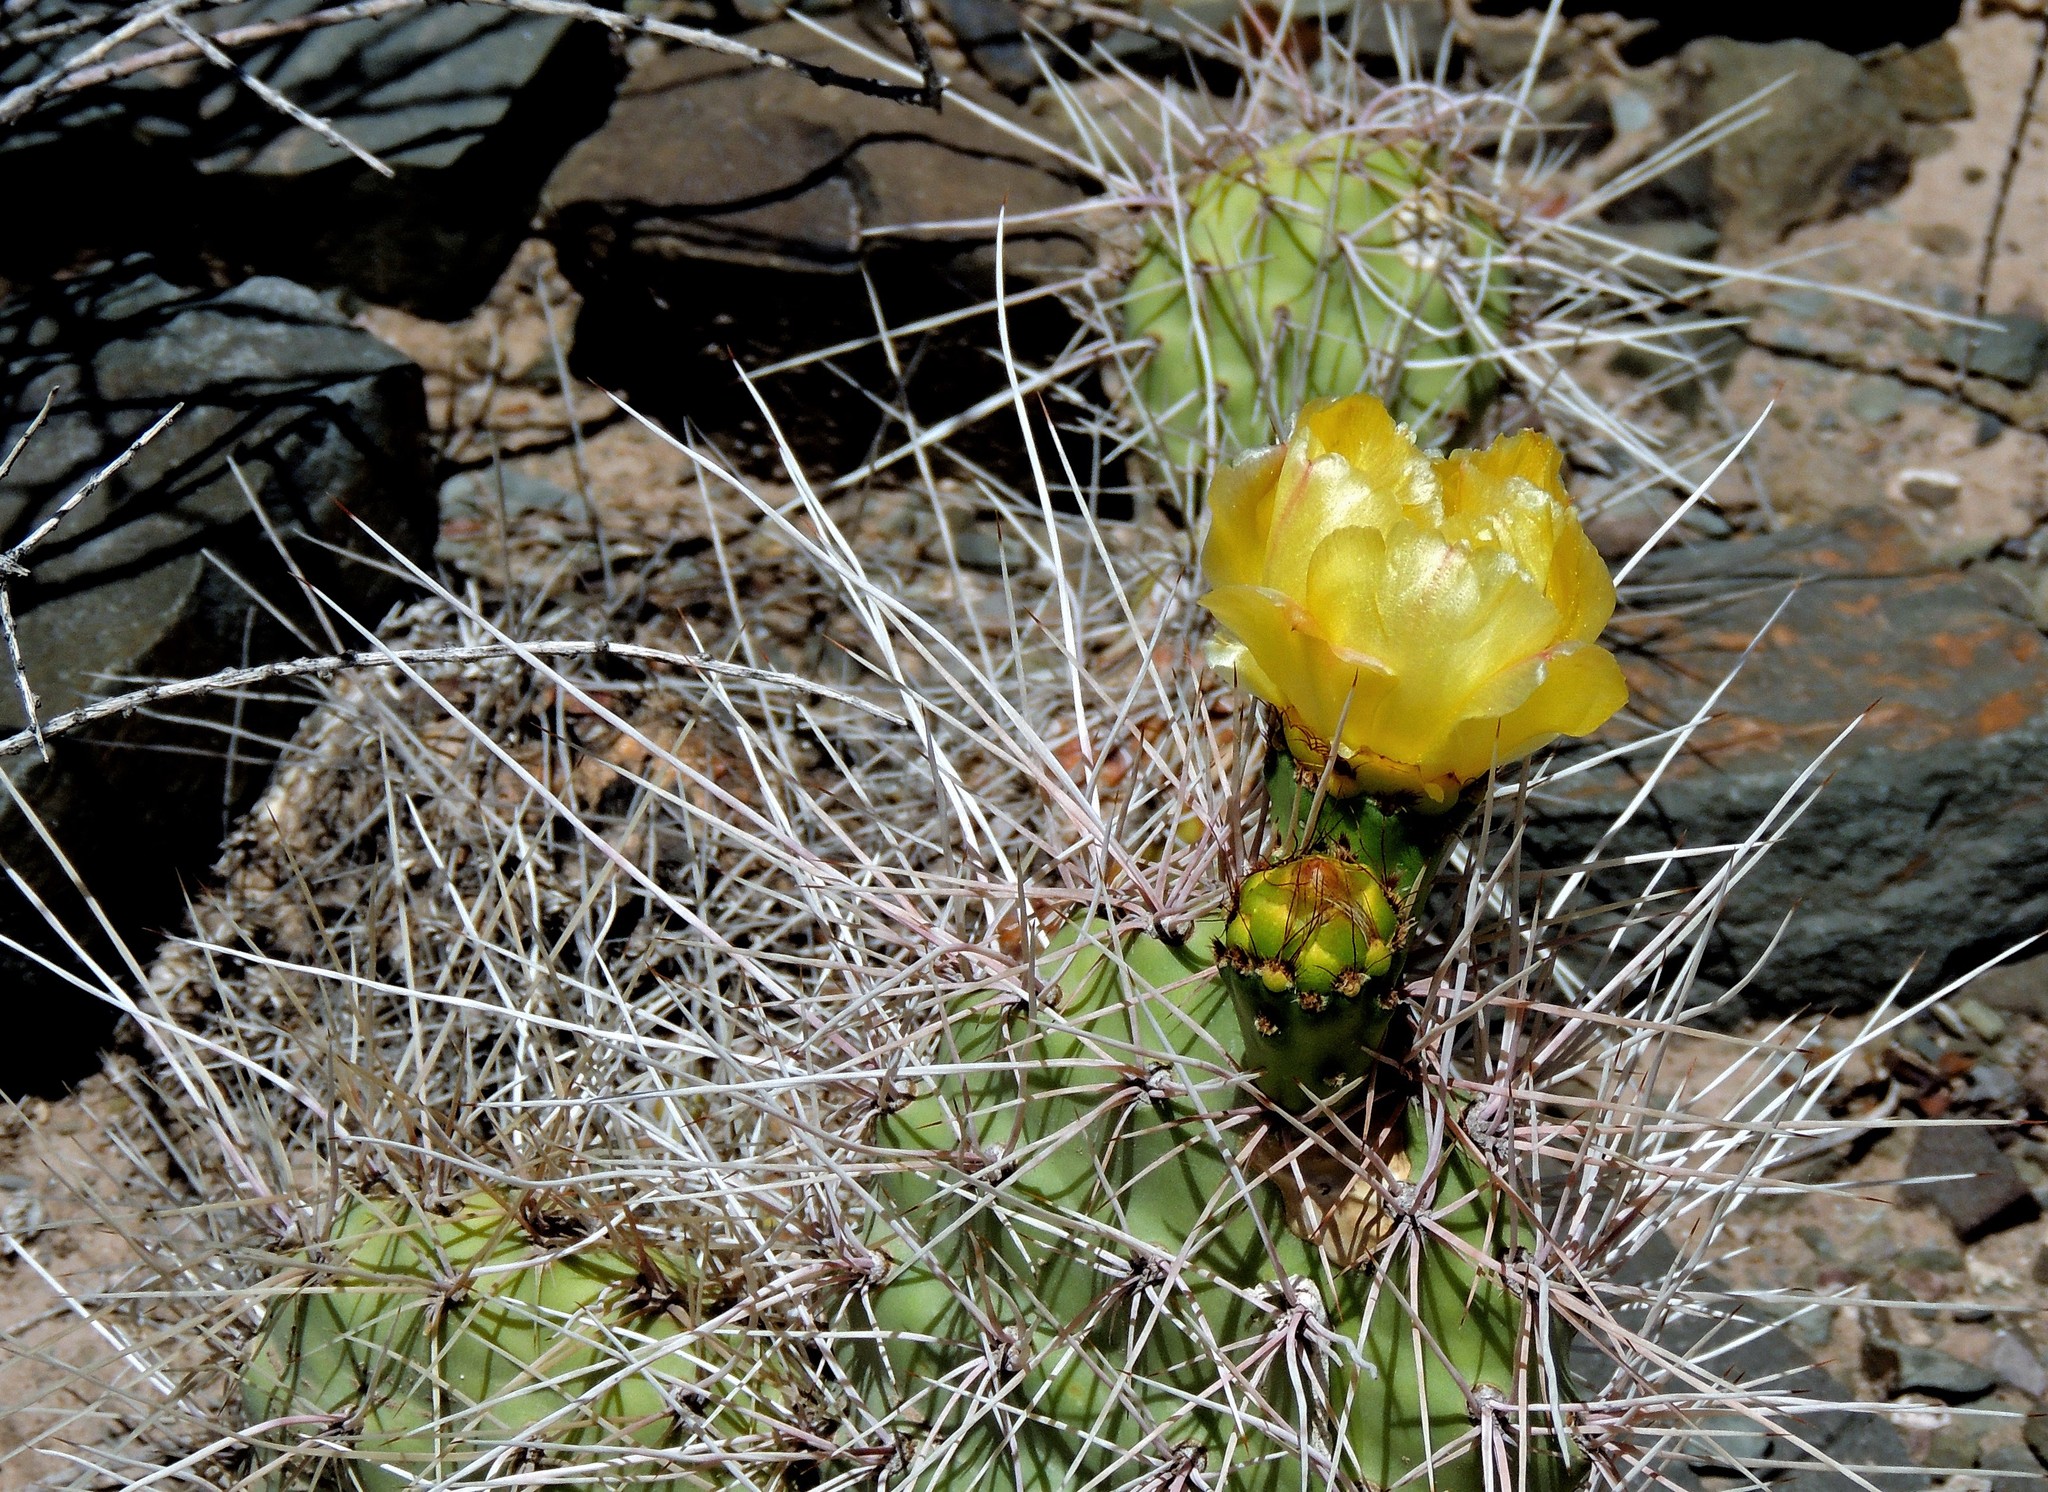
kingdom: Plantae
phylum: Tracheophyta
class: Magnoliopsida
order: Caryophyllales
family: Cactaceae
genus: Opuntia
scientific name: Opuntia sulphurea
